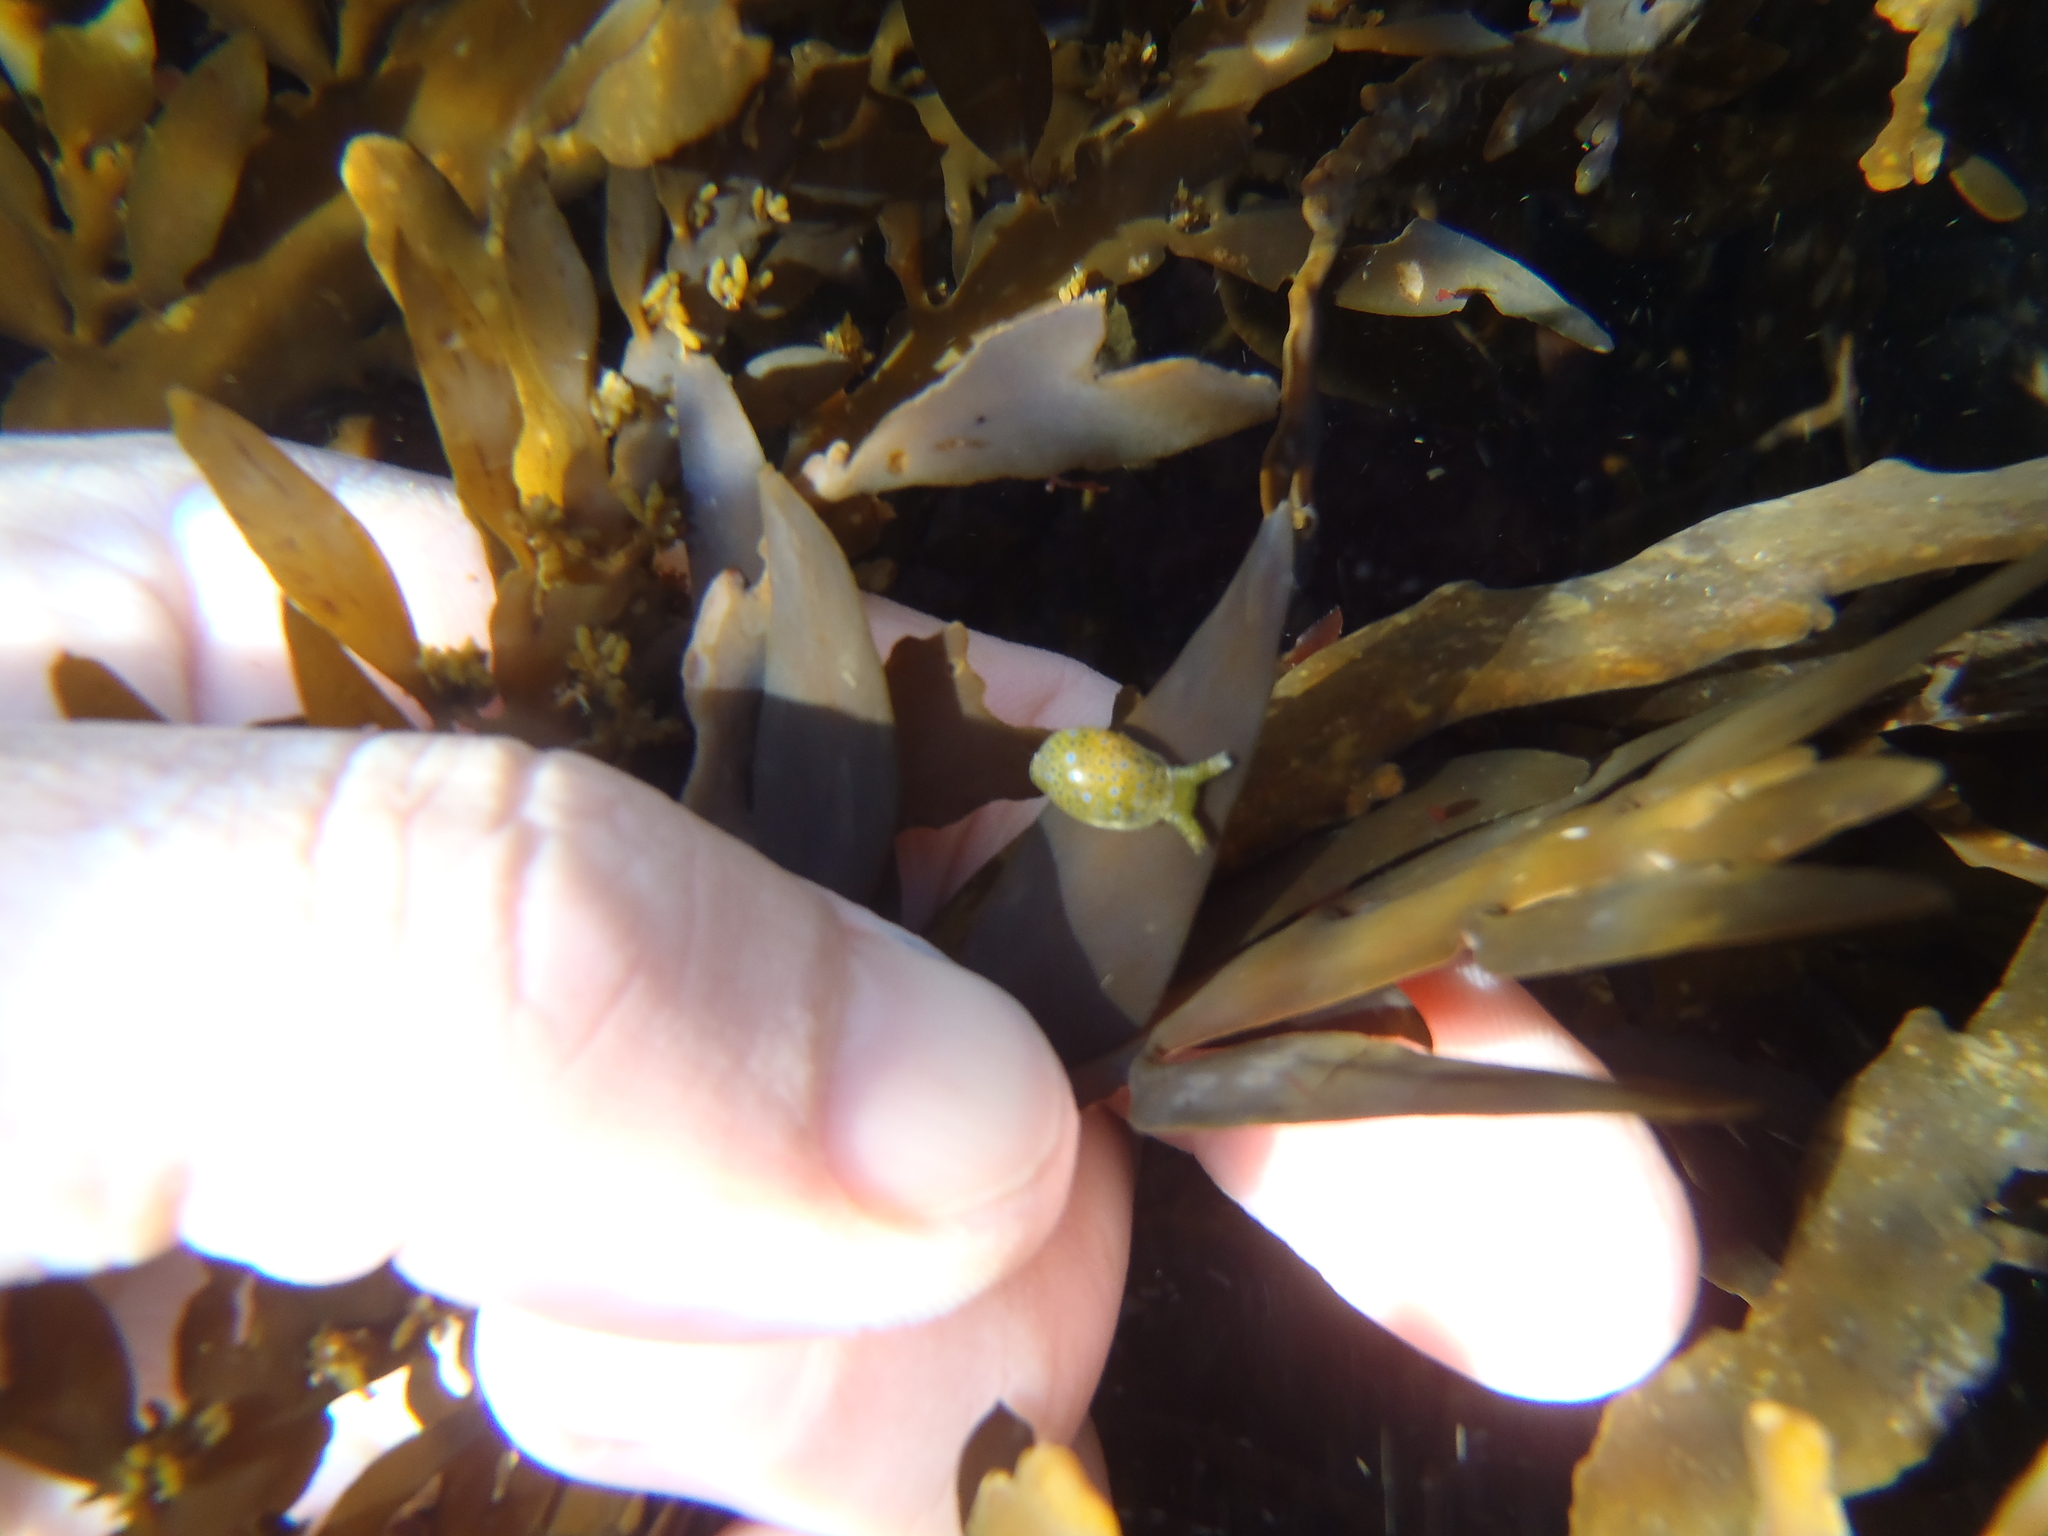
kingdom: Animalia
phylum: Mollusca
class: Gastropoda
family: Oxynoidae
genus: Oxynoe
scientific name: Oxynoe viridis
